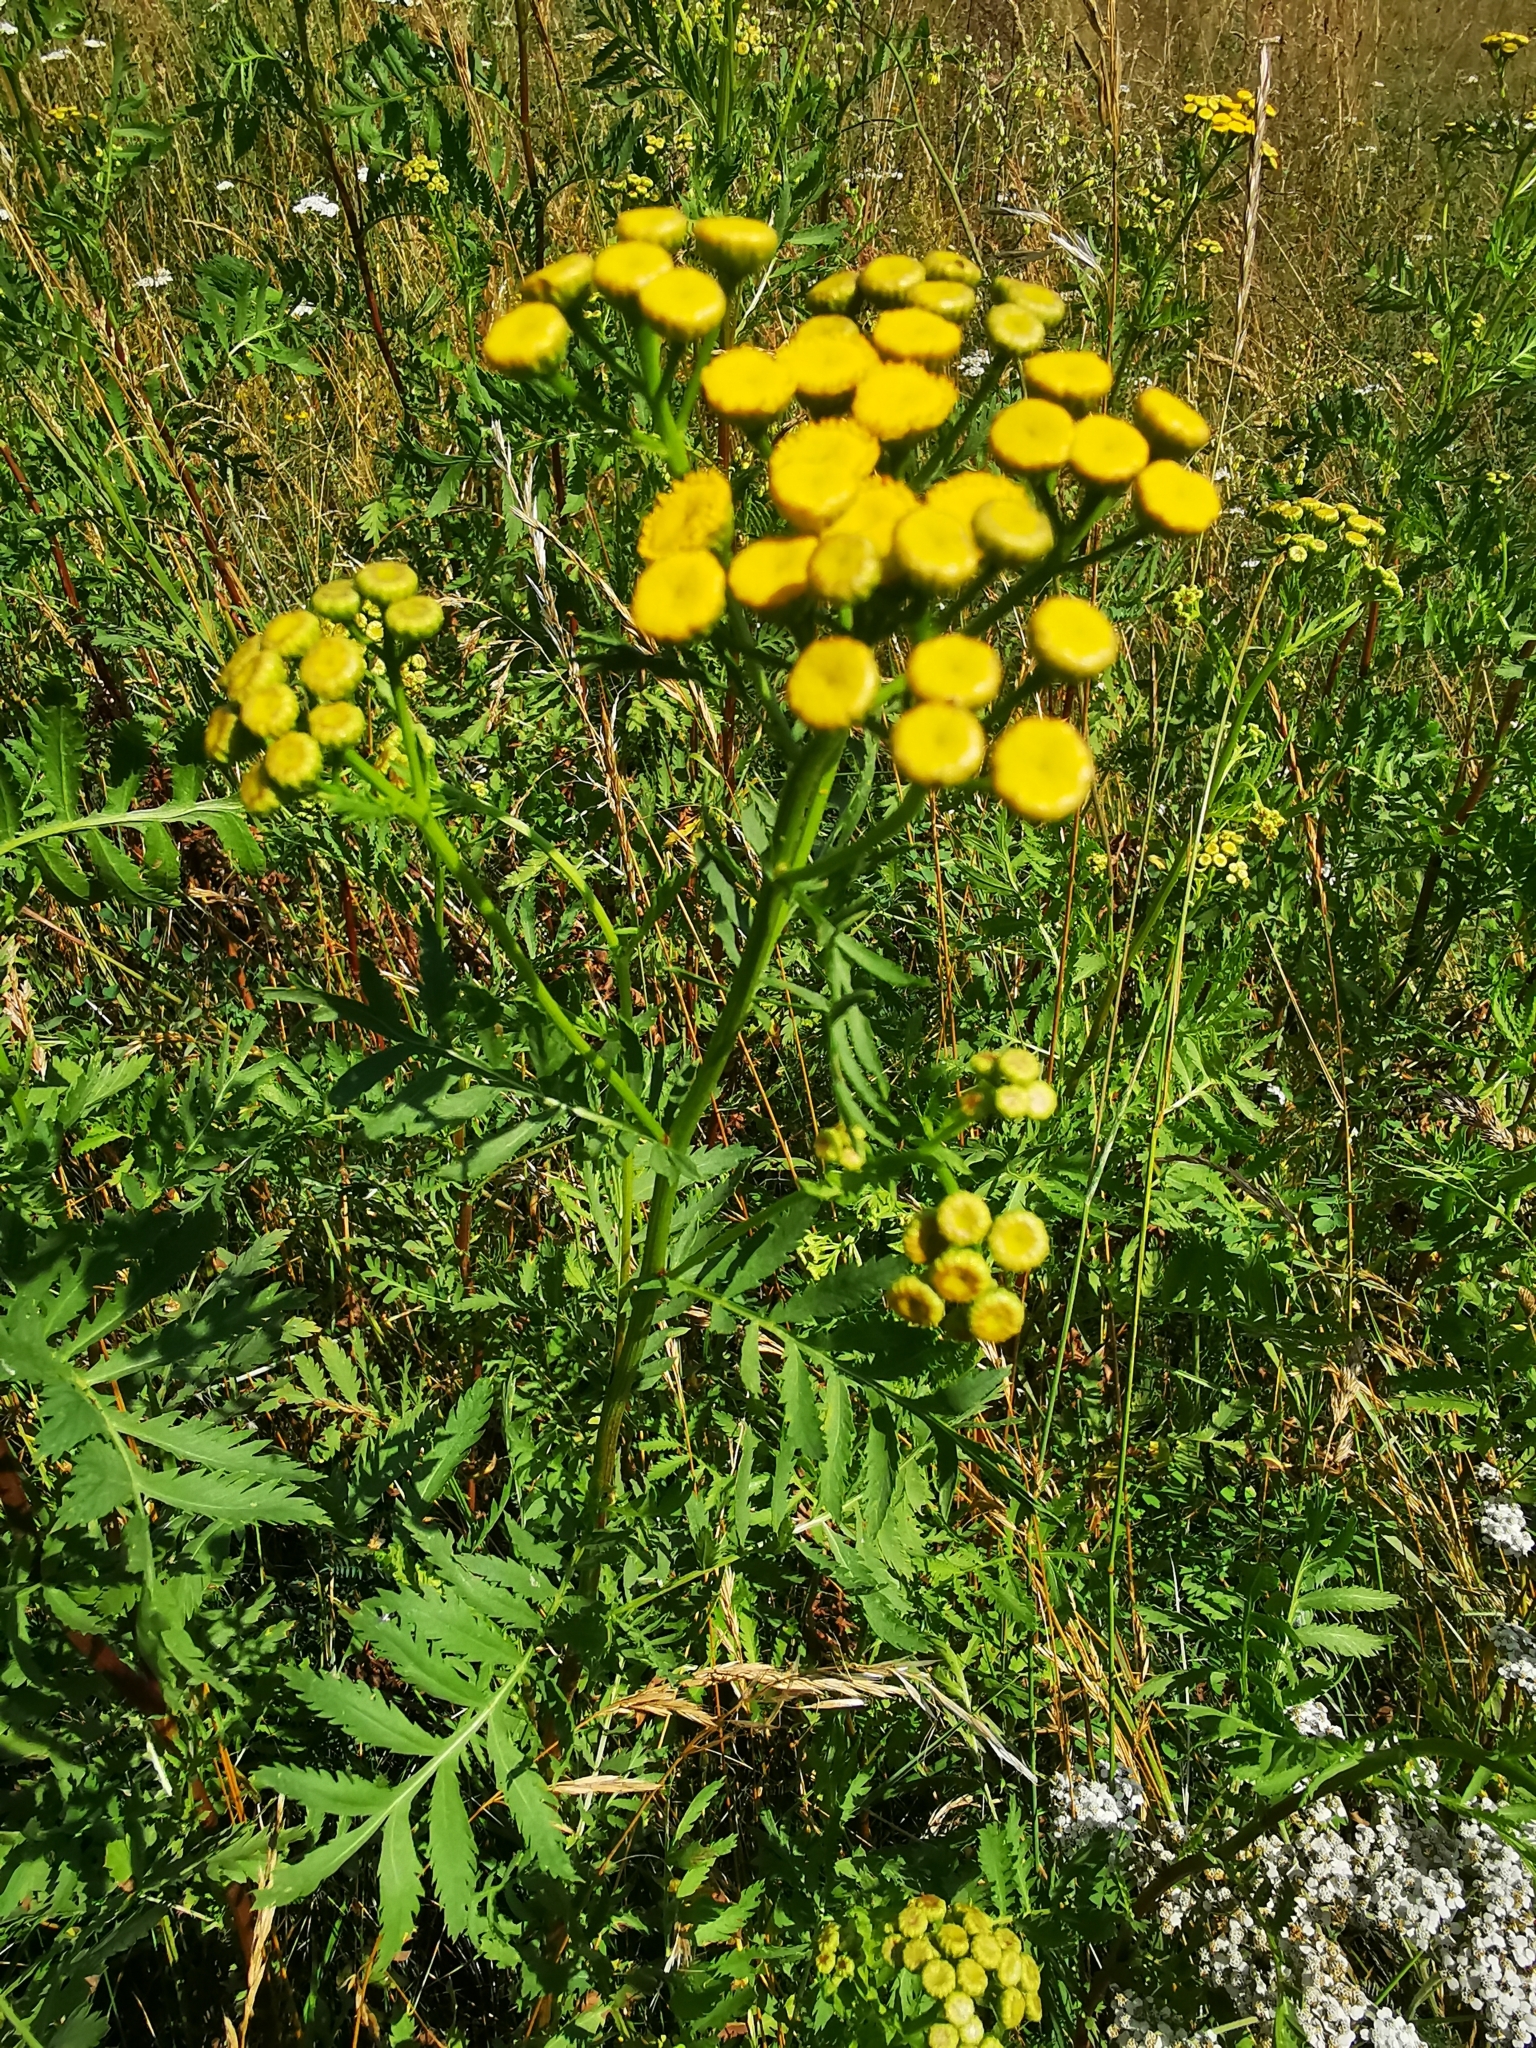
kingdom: Plantae
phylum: Tracheophyta
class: Magnoliopsida
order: Asterales
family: Asteraceae
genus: Tanacetum
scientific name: Tanacetum vulgare
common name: Common tansy
